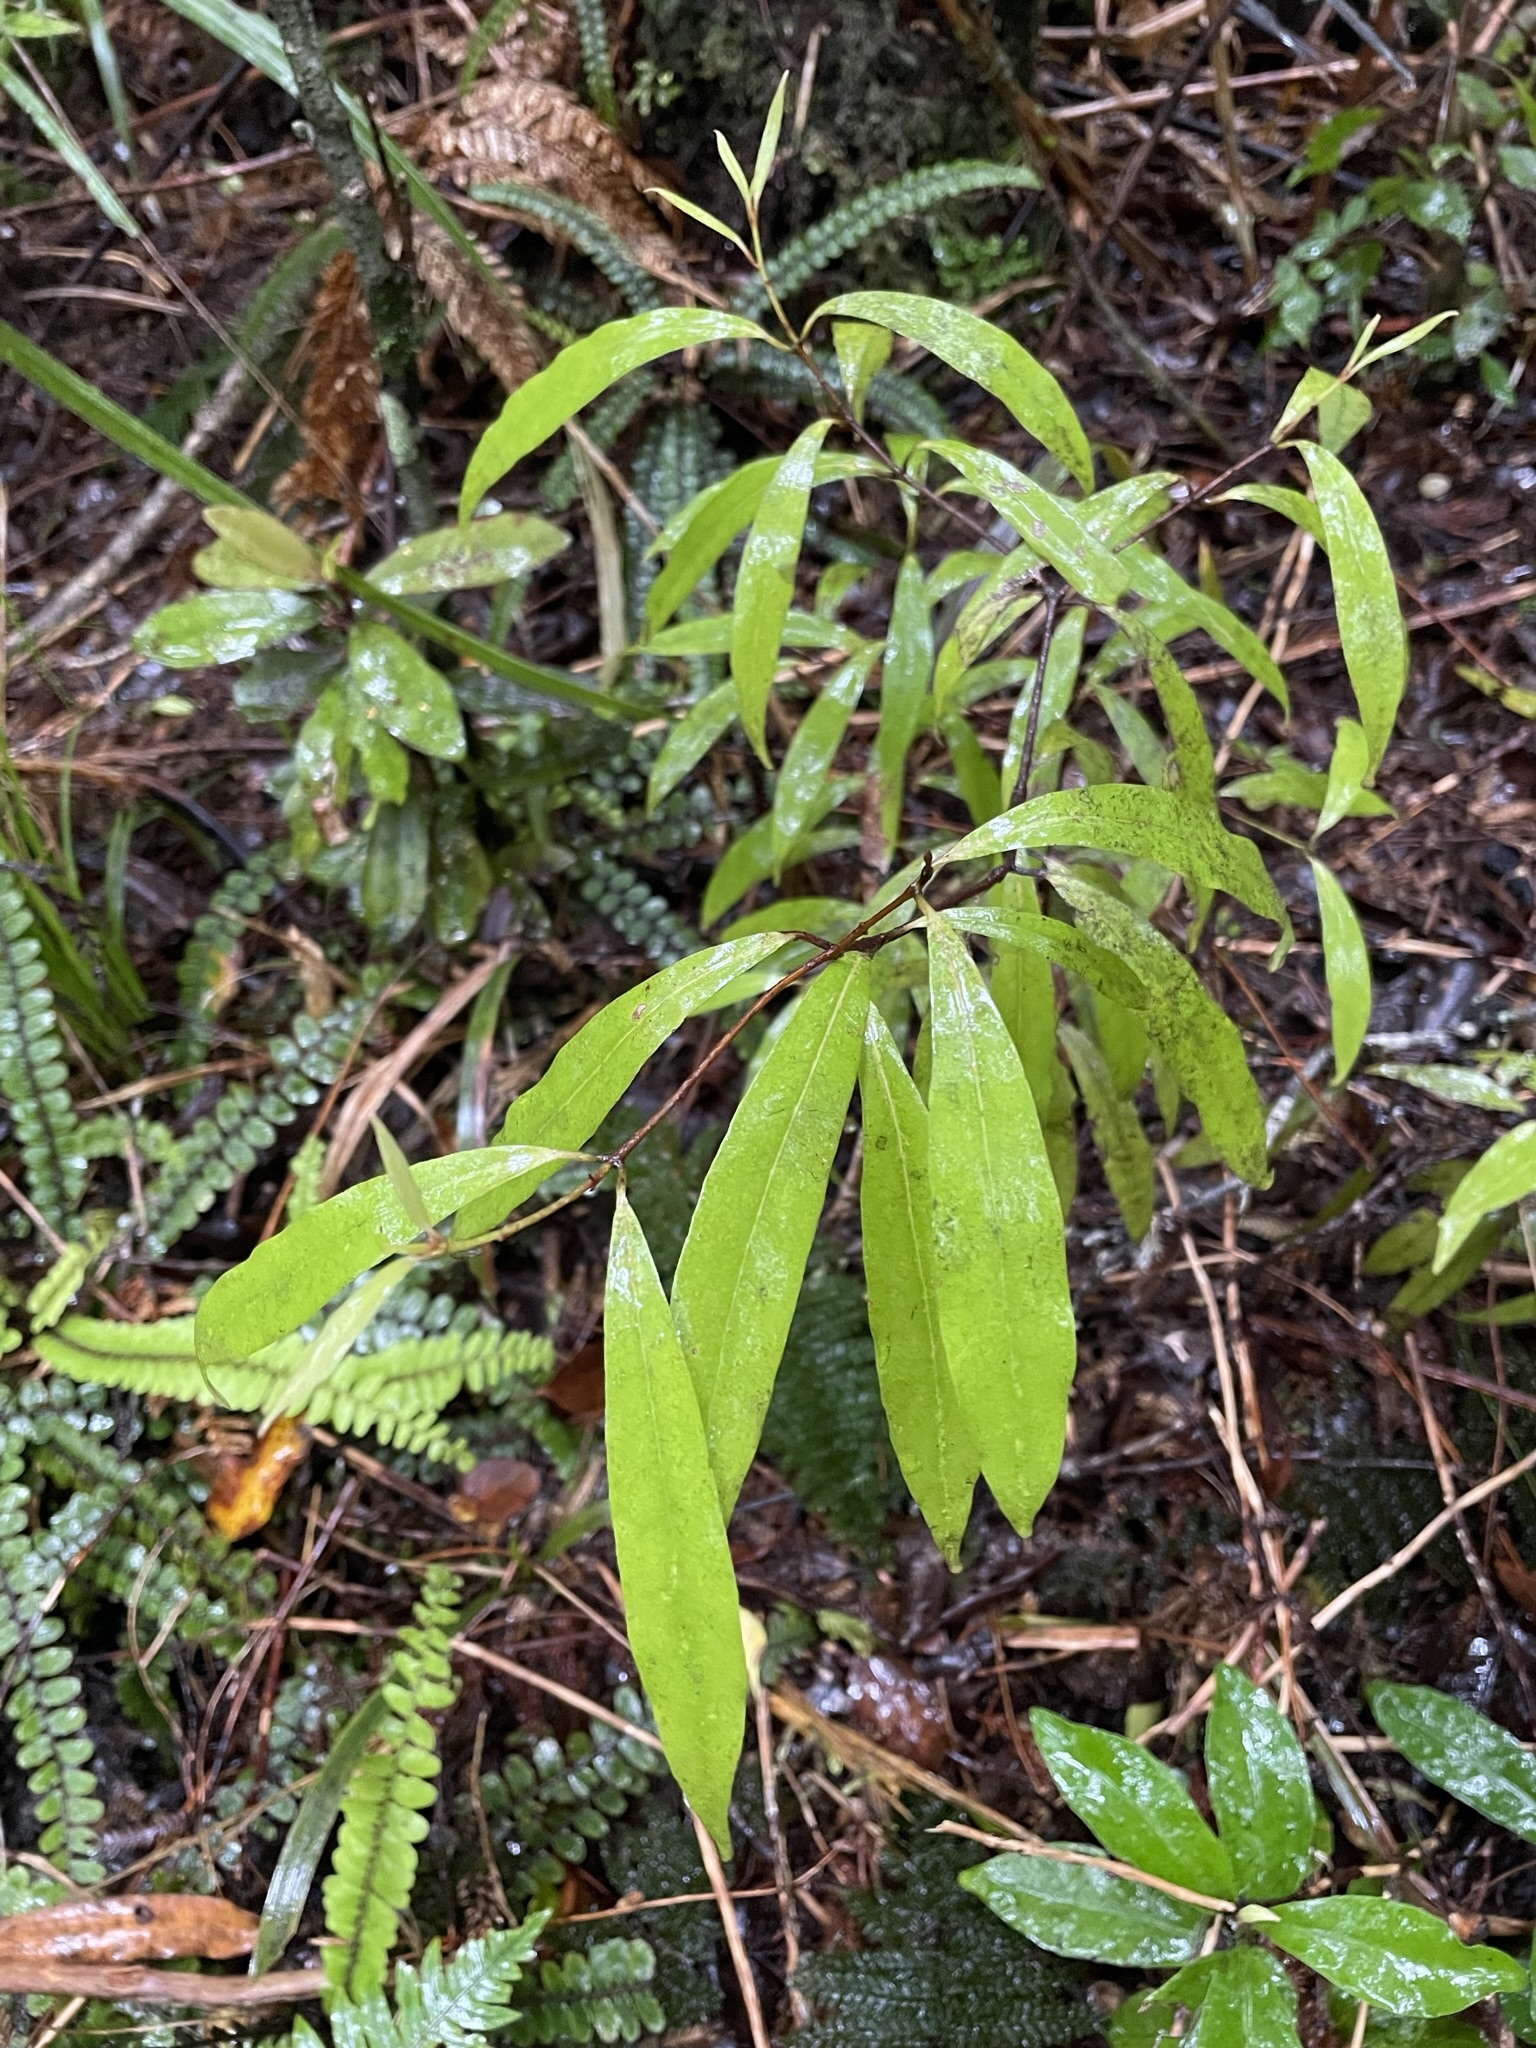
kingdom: Plantae
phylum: Tracheophyta
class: Magnoliopsida
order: Laurales
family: Lauraceae
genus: Beilschmiedia
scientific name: Beilschmiedia tawa
